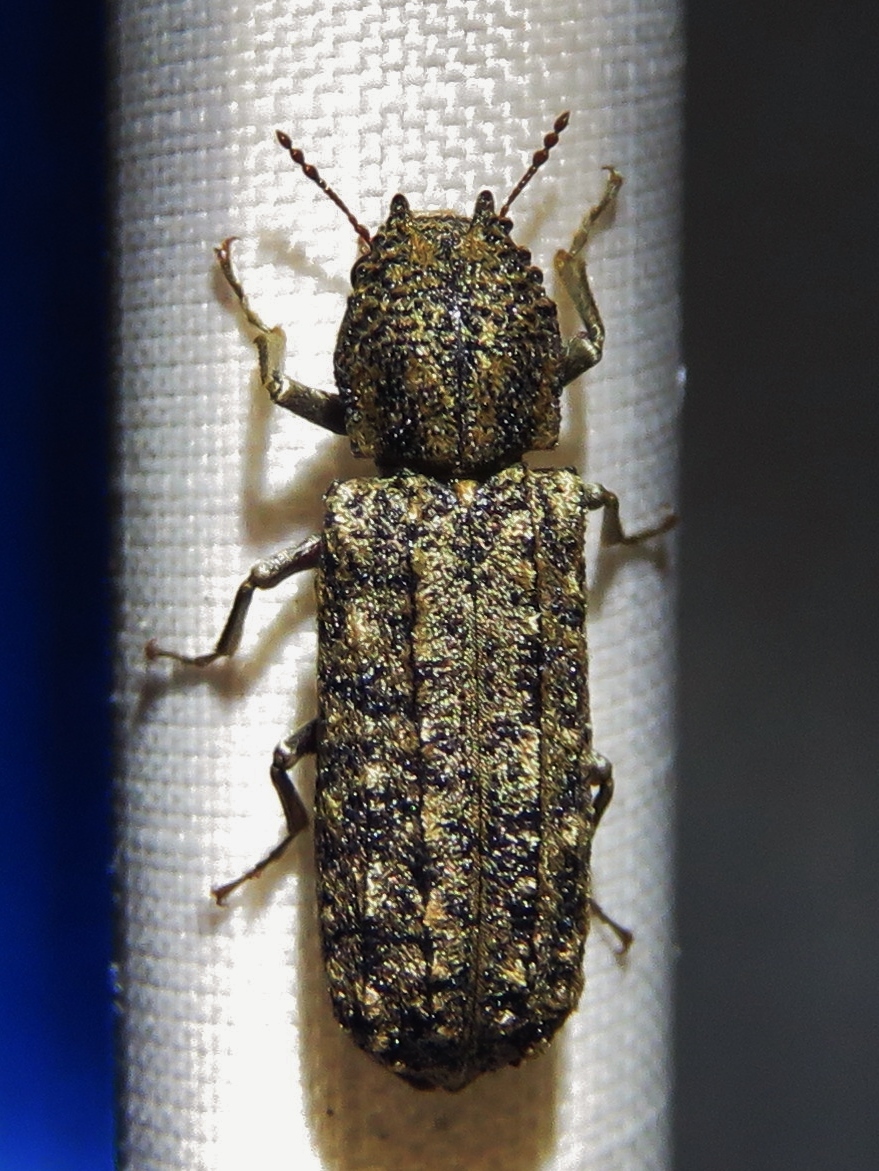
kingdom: Animalia
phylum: Arthropoda
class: Insecta
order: Coleoptera
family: Bostrichidae
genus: Lichenophanes
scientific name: Lichenophanes bicornis
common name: Two-horned powder-post beetle
